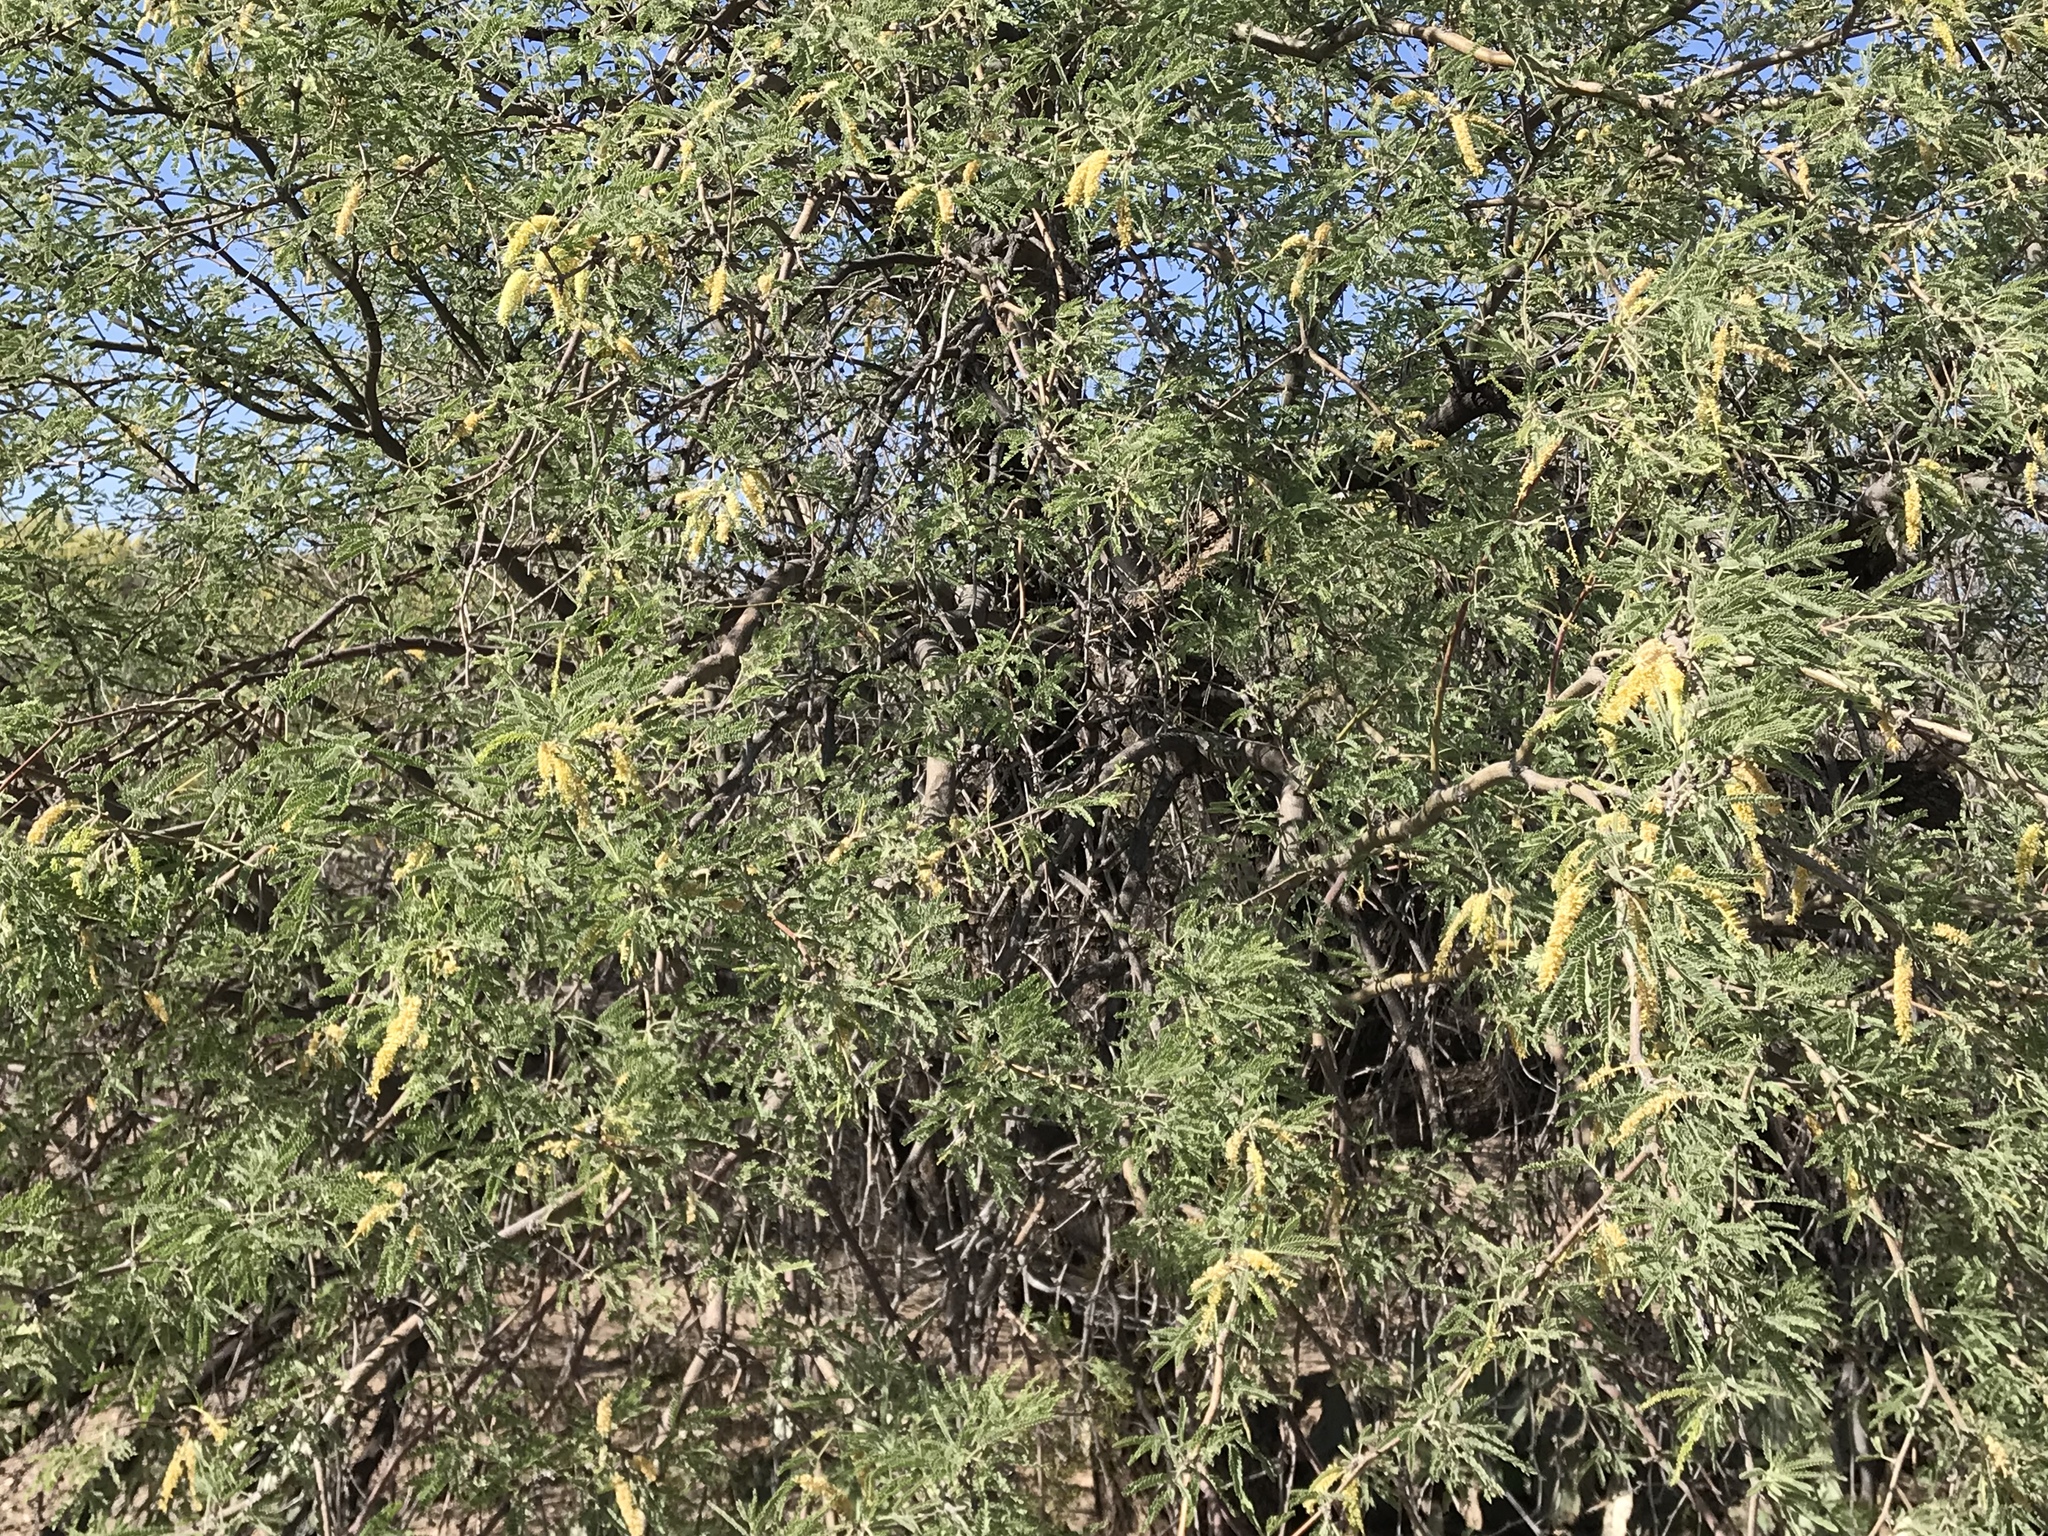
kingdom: Plantae
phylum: Tracheophyta
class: Magnoliopsida
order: Fabales
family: Fabaceae
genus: Prosopis
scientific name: Prosopis velutina
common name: Velvet mesquite
